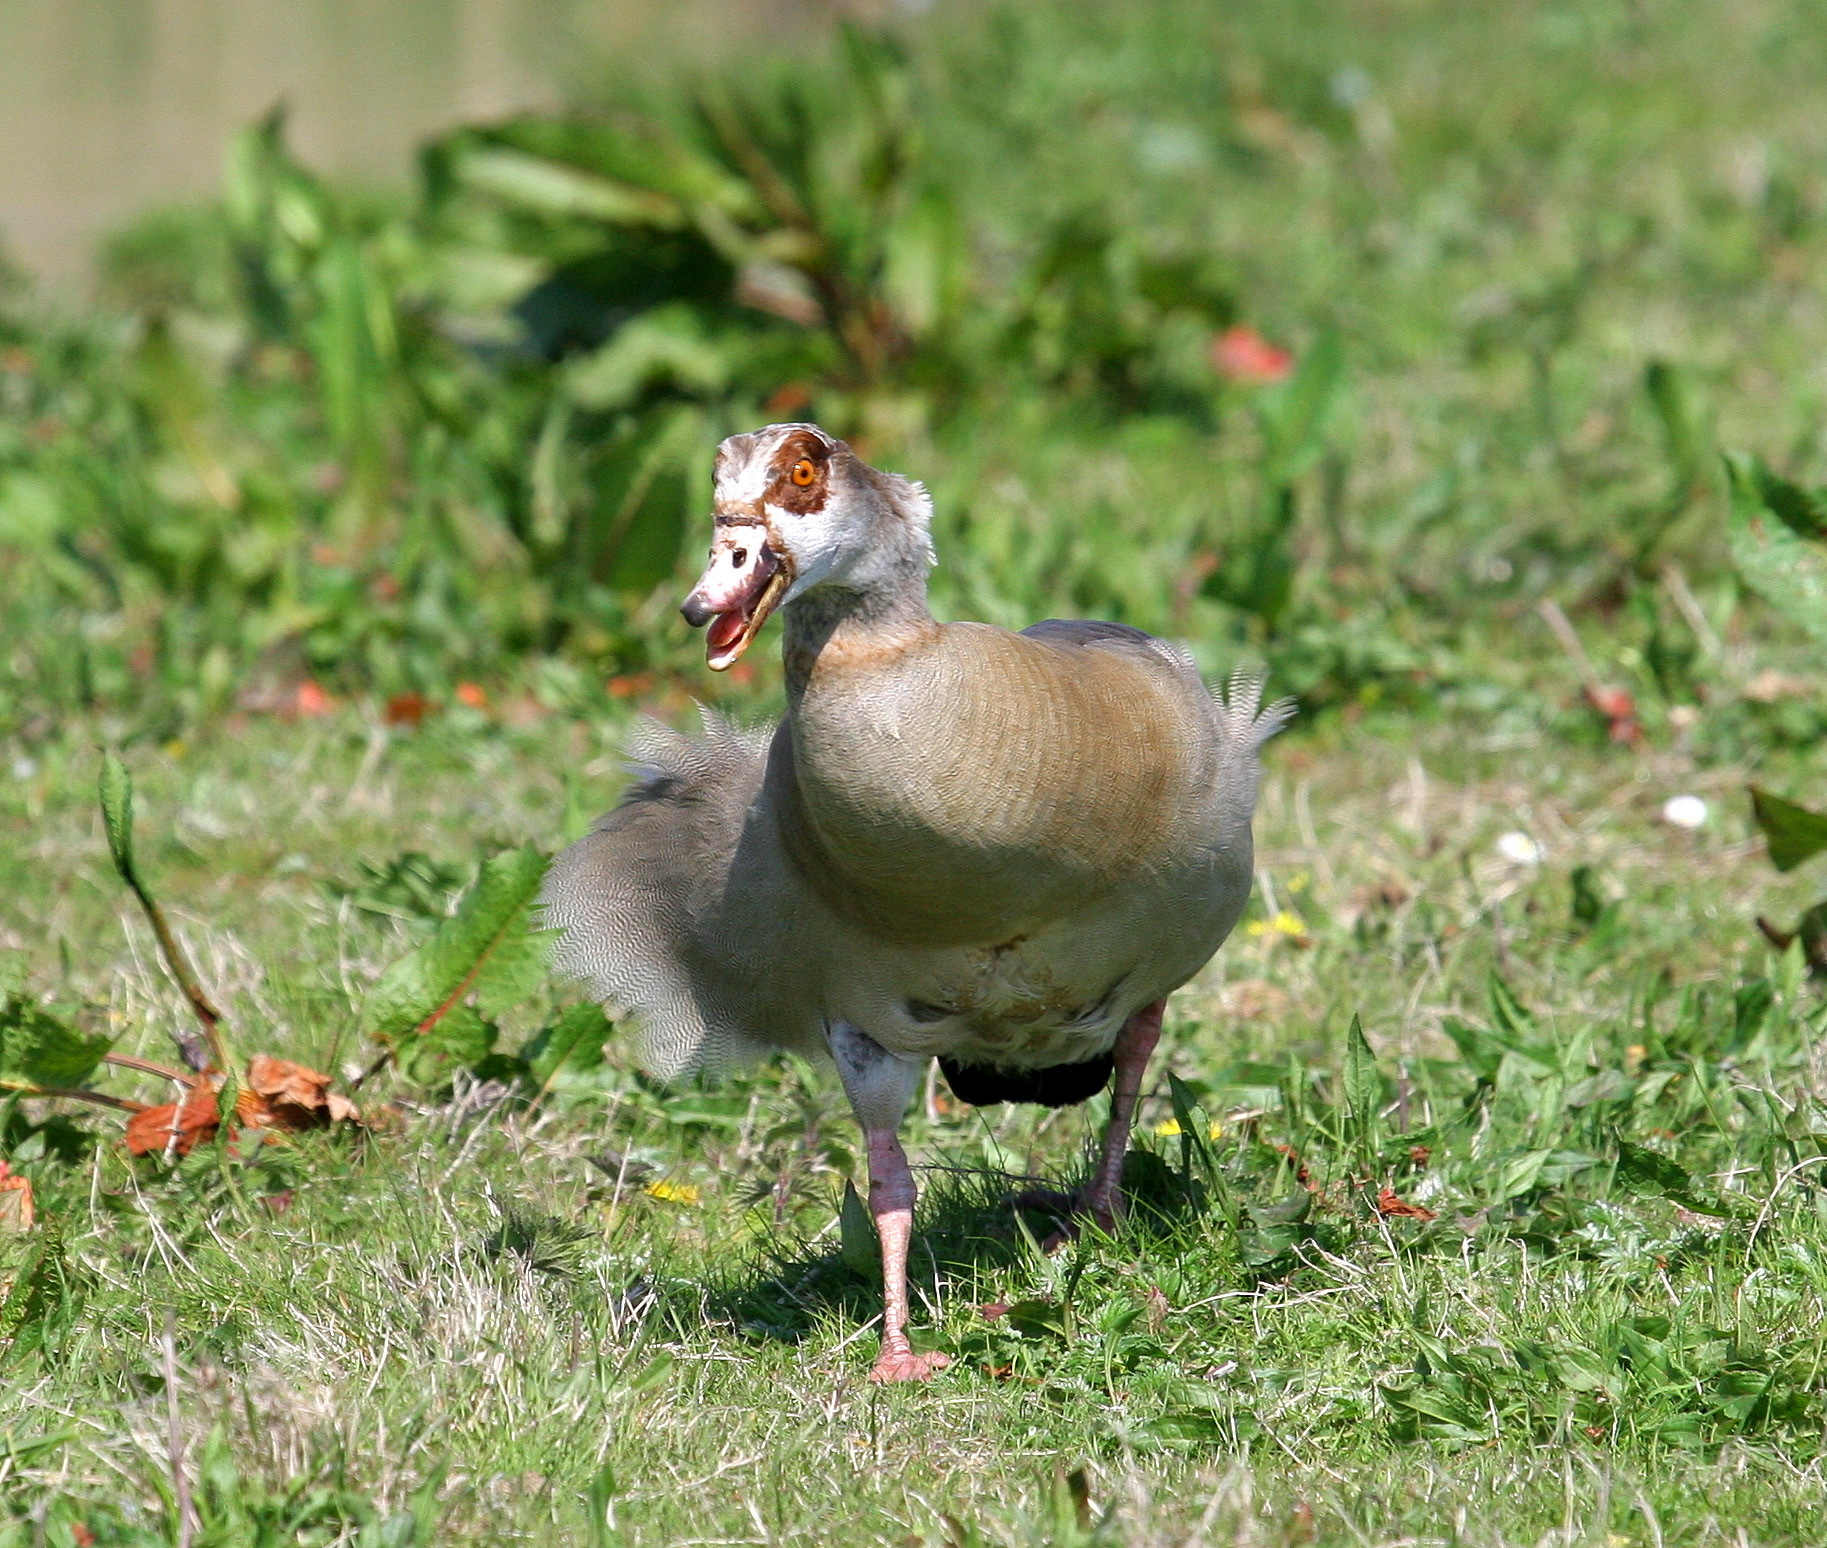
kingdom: Animalia
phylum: Chordata
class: Aves
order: Anseriformes
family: Anatidae
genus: Alopochen
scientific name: Alopochen aegyptiaca
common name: Egyptian goose
